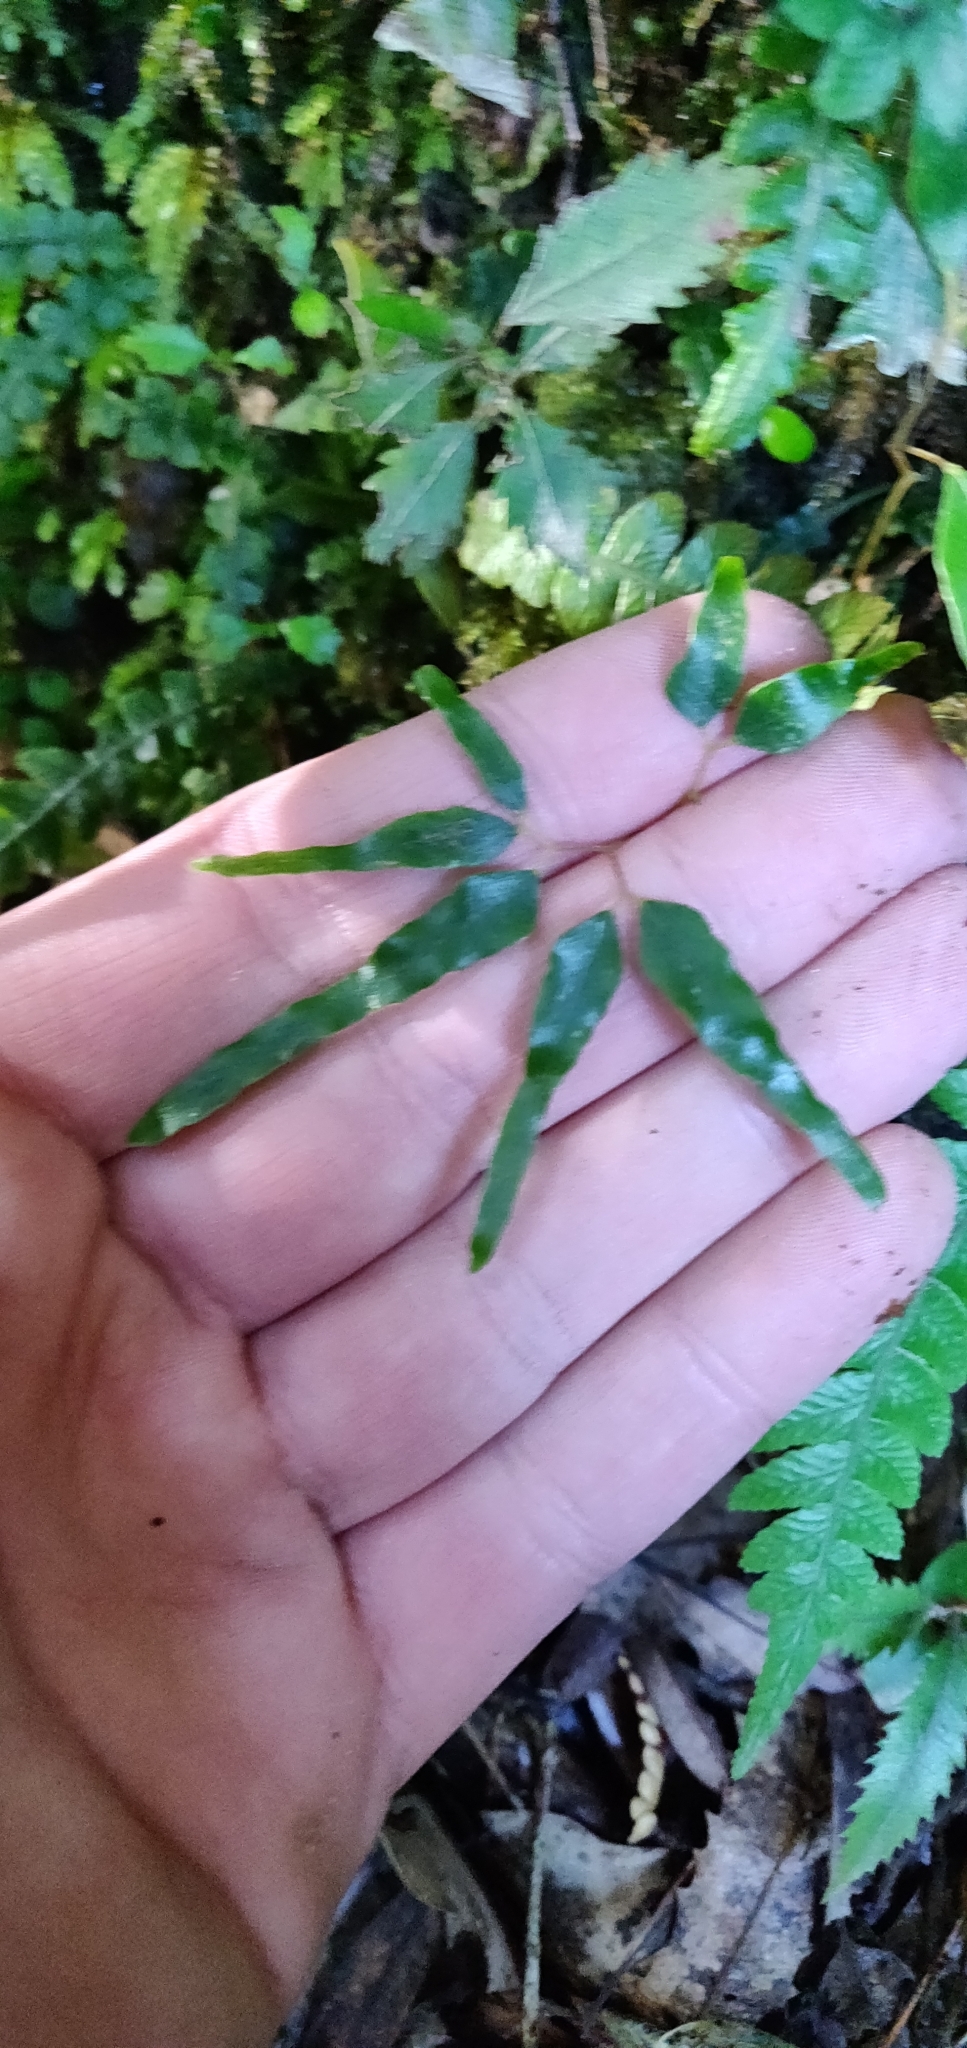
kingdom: Plantae
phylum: Tracheophyta
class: Polypodiopsida
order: Schizaeales
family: Lygodiaceae
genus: Lygodium
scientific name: Lygodium articulatum
